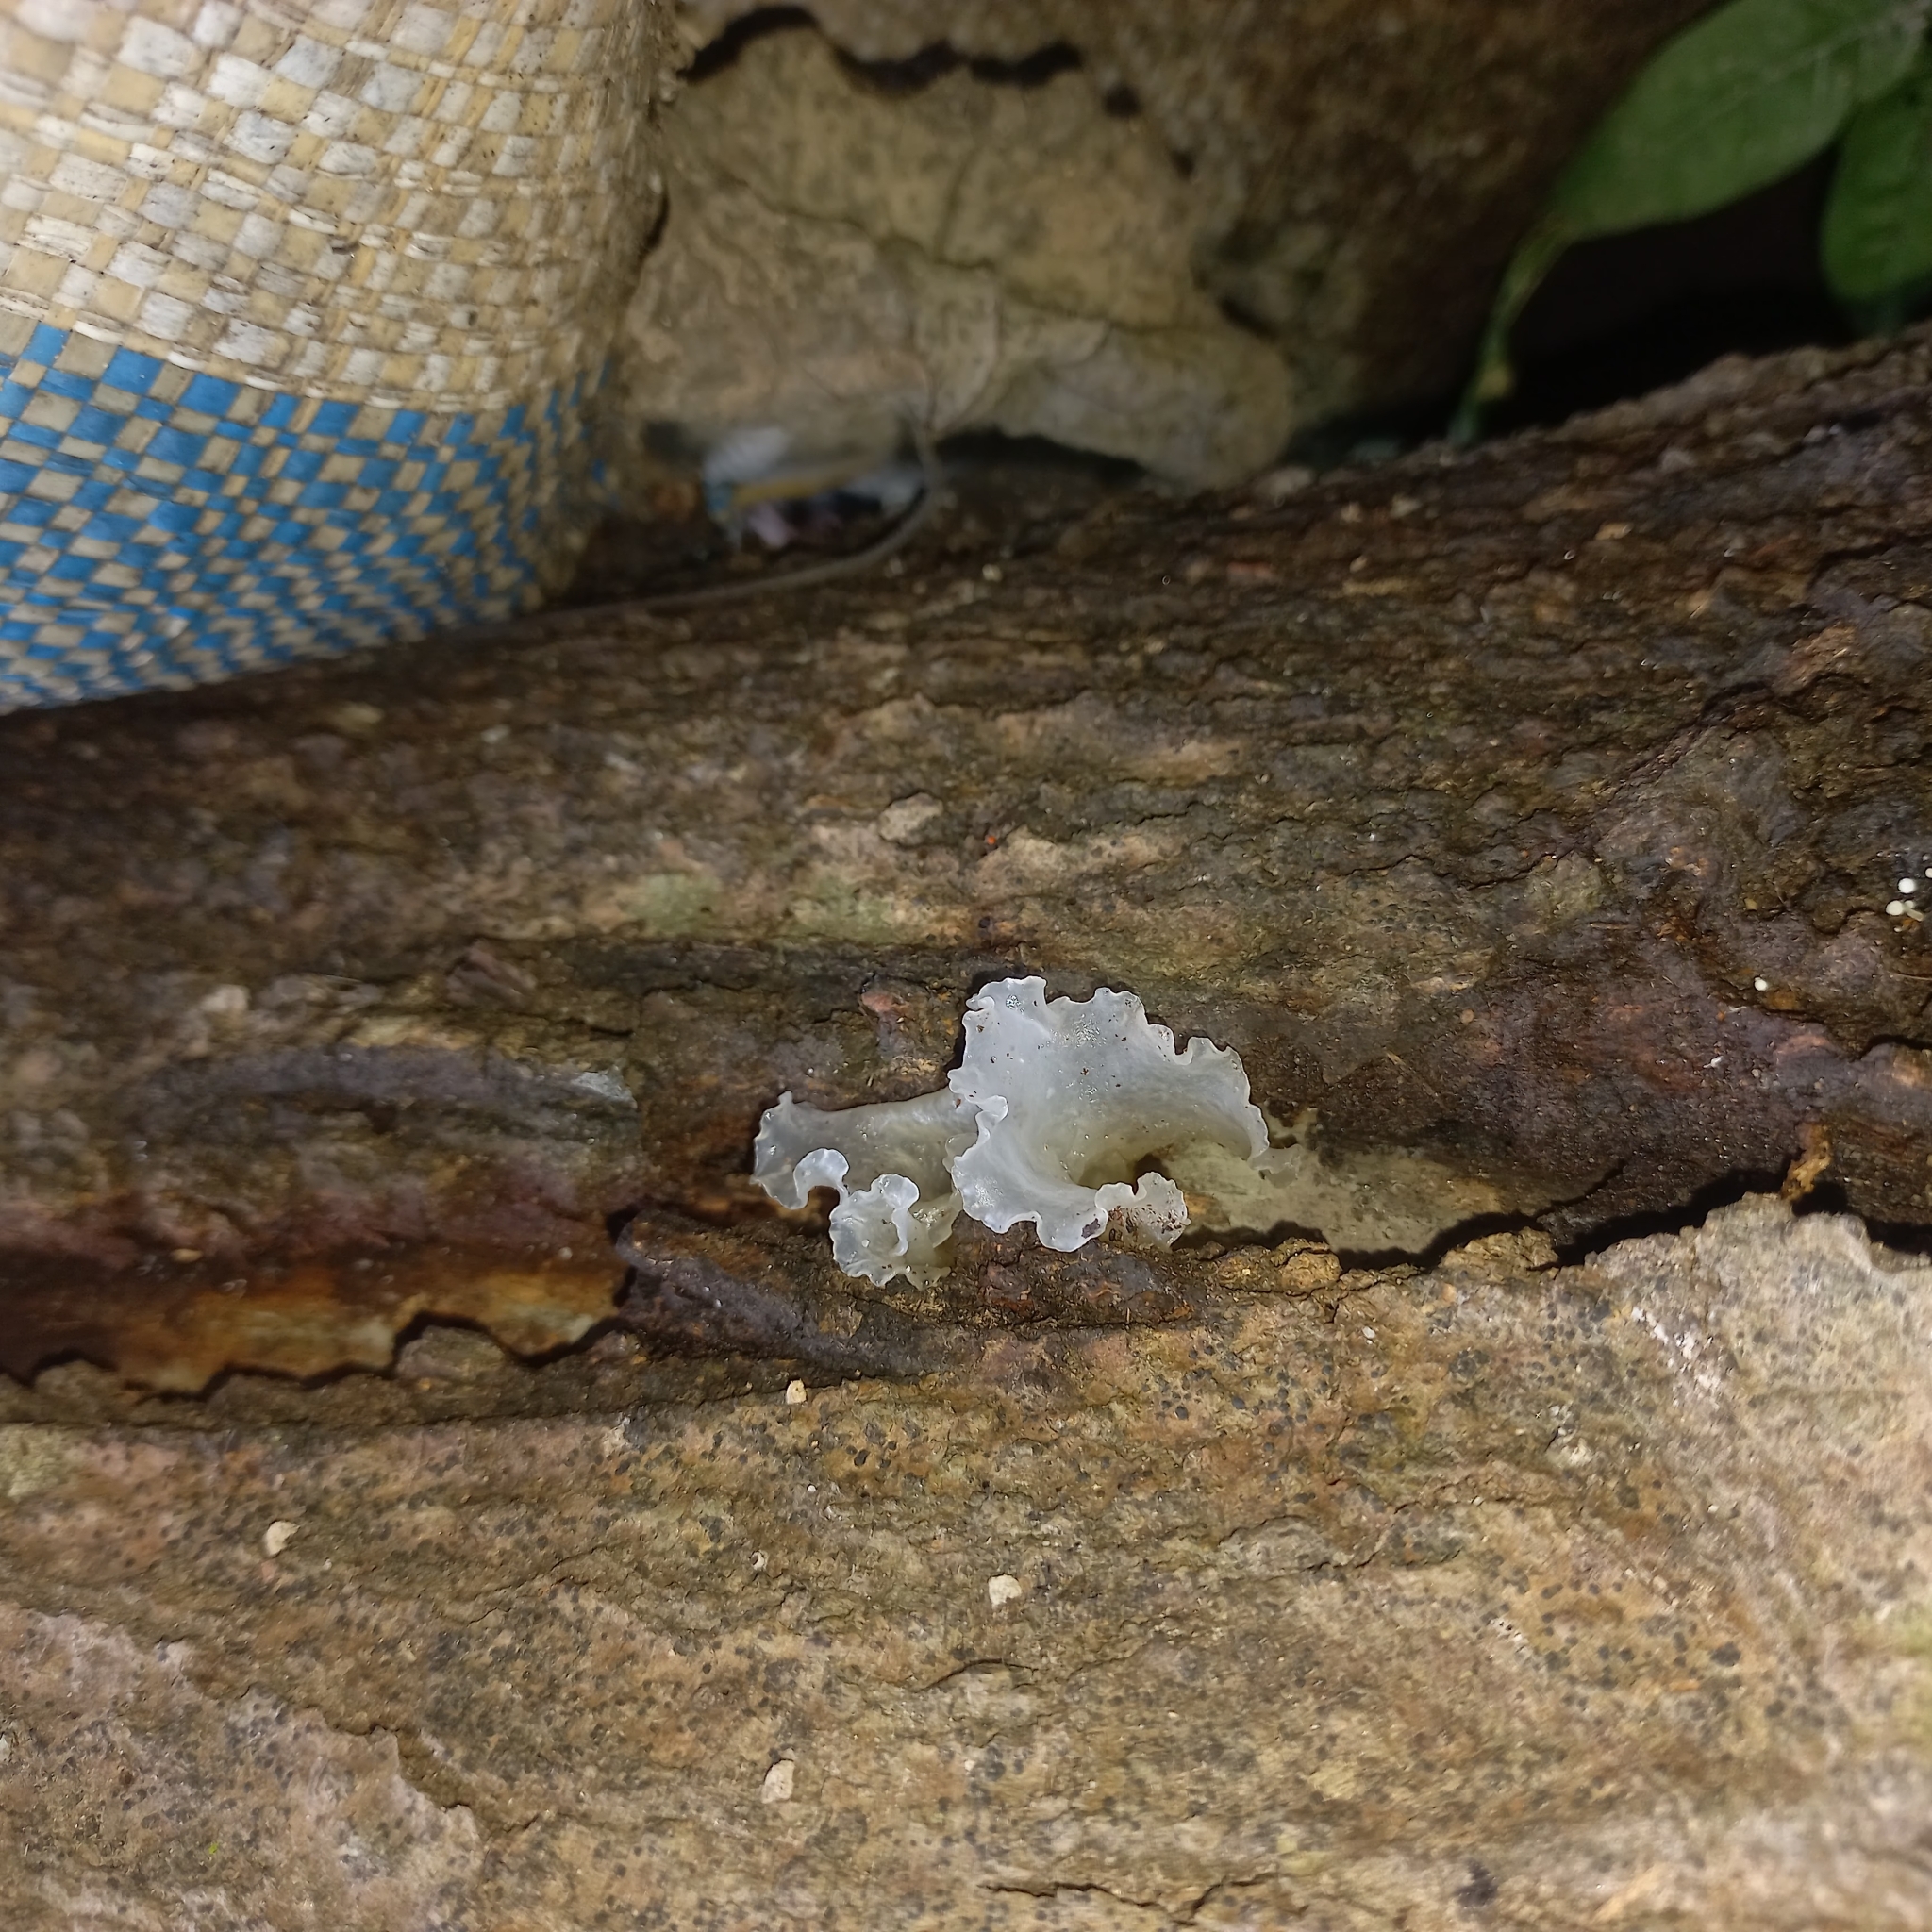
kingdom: Fungi
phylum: Basidiomycota
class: Tremellomycetes
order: Tremellales
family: Tremellaceae
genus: Tremella
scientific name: Tremella fuciformis
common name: Snow fungus
